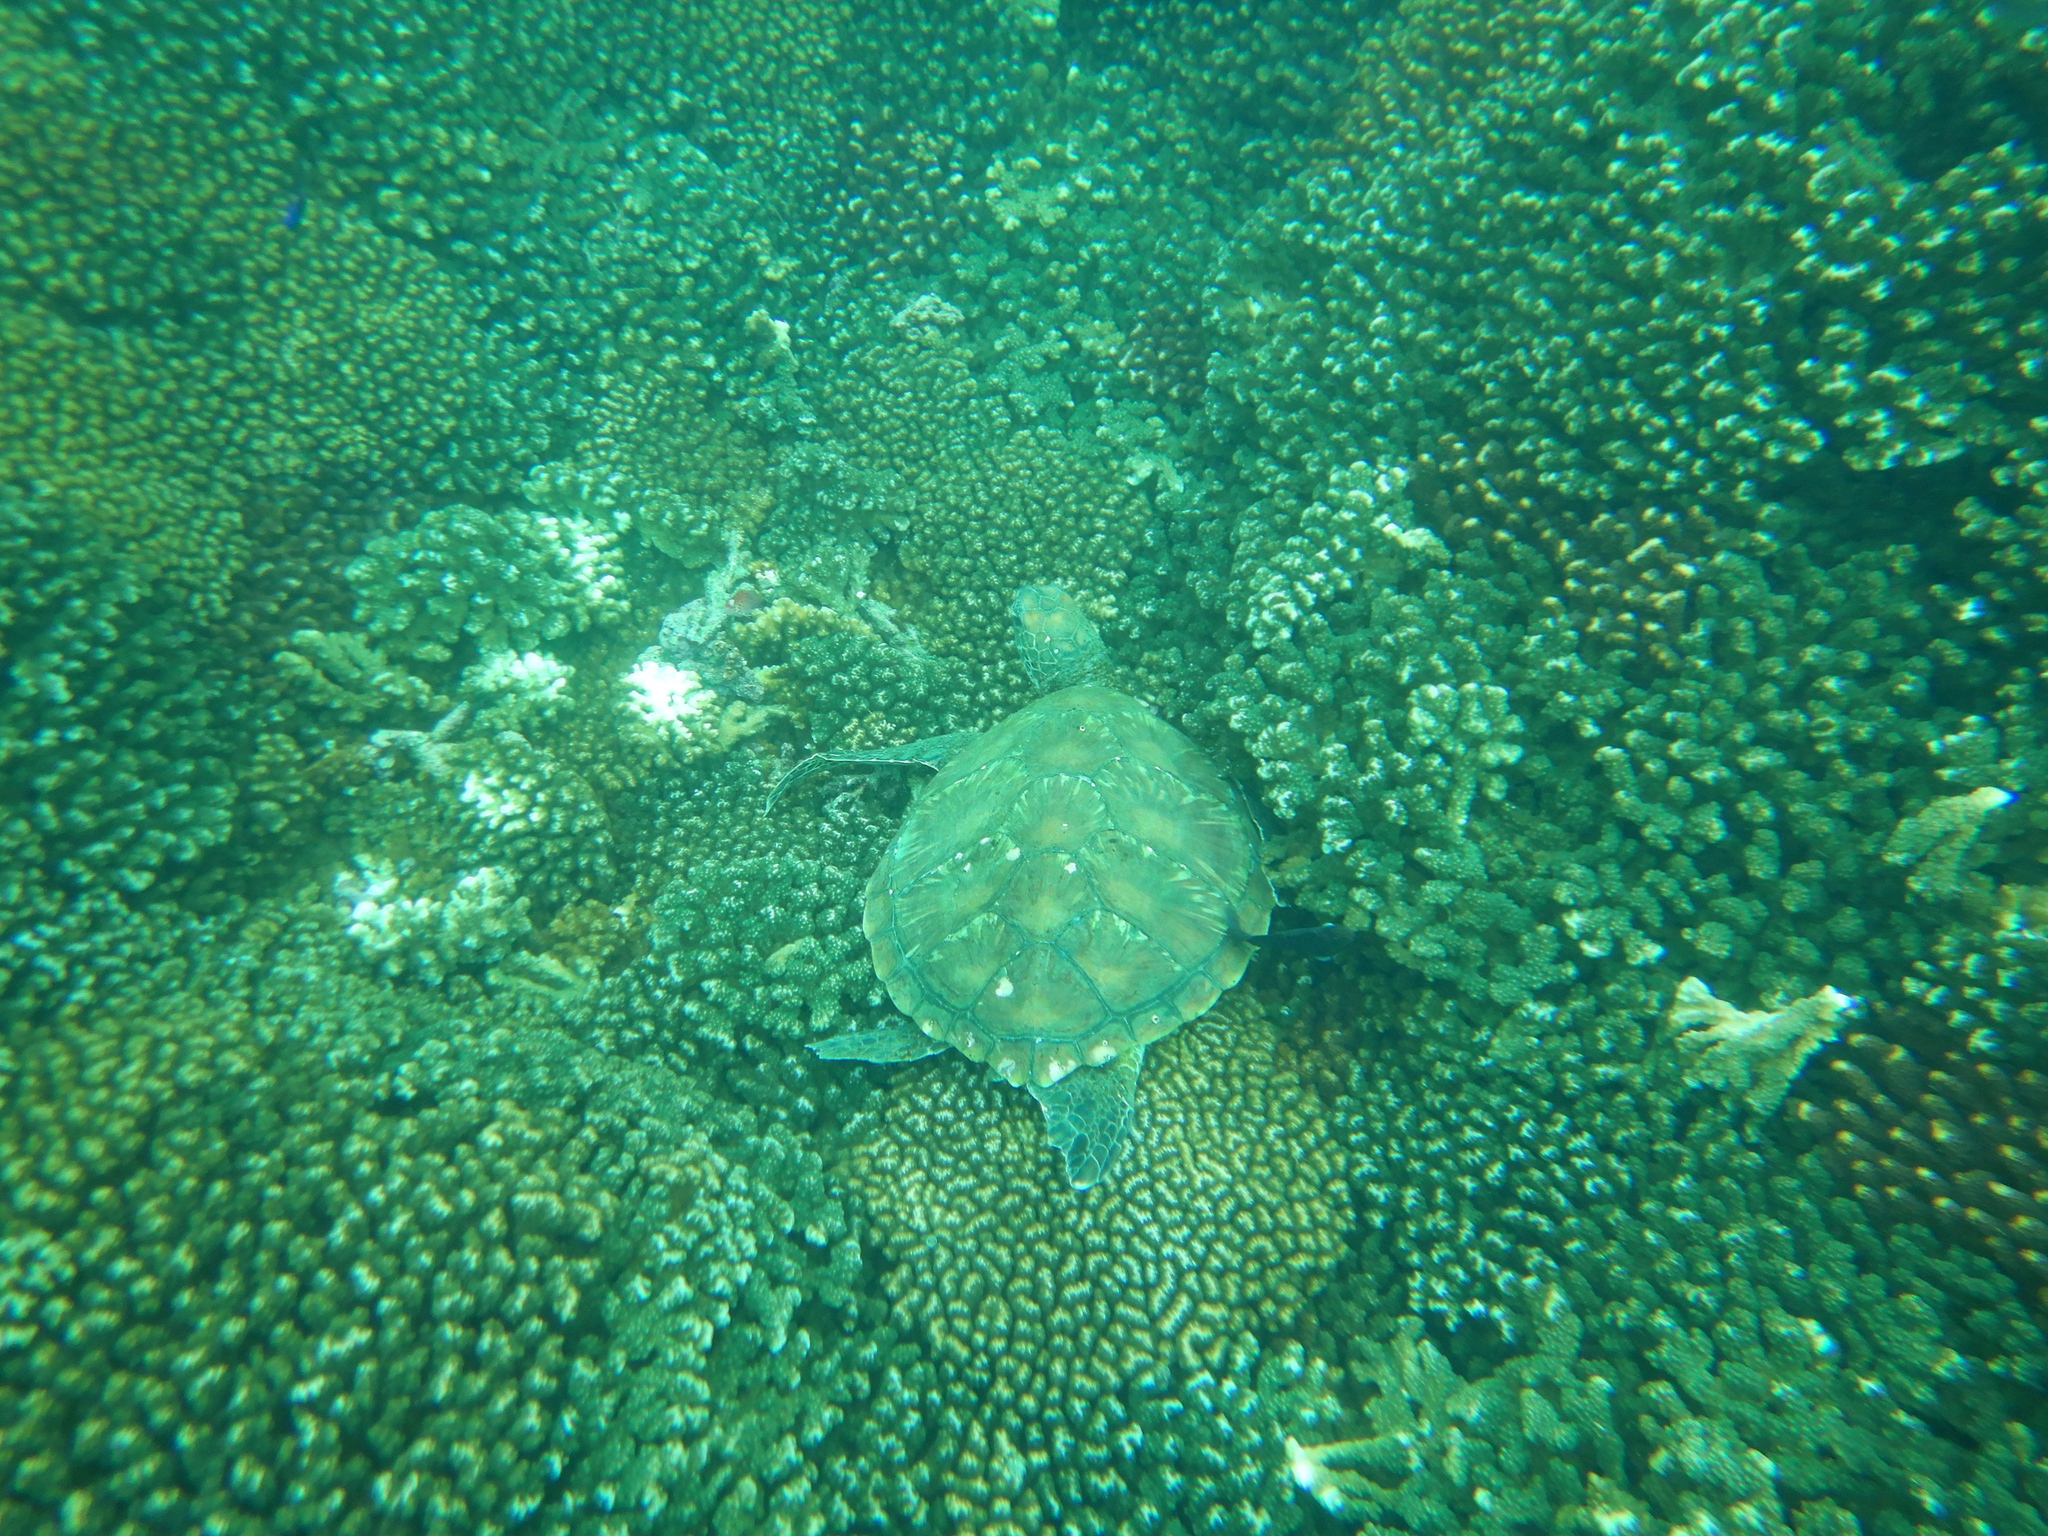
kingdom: Animalia
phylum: Chordata
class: Testudines
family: Cheloniidae
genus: Chelonia
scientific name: Chelonia mydas
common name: Green turtle
